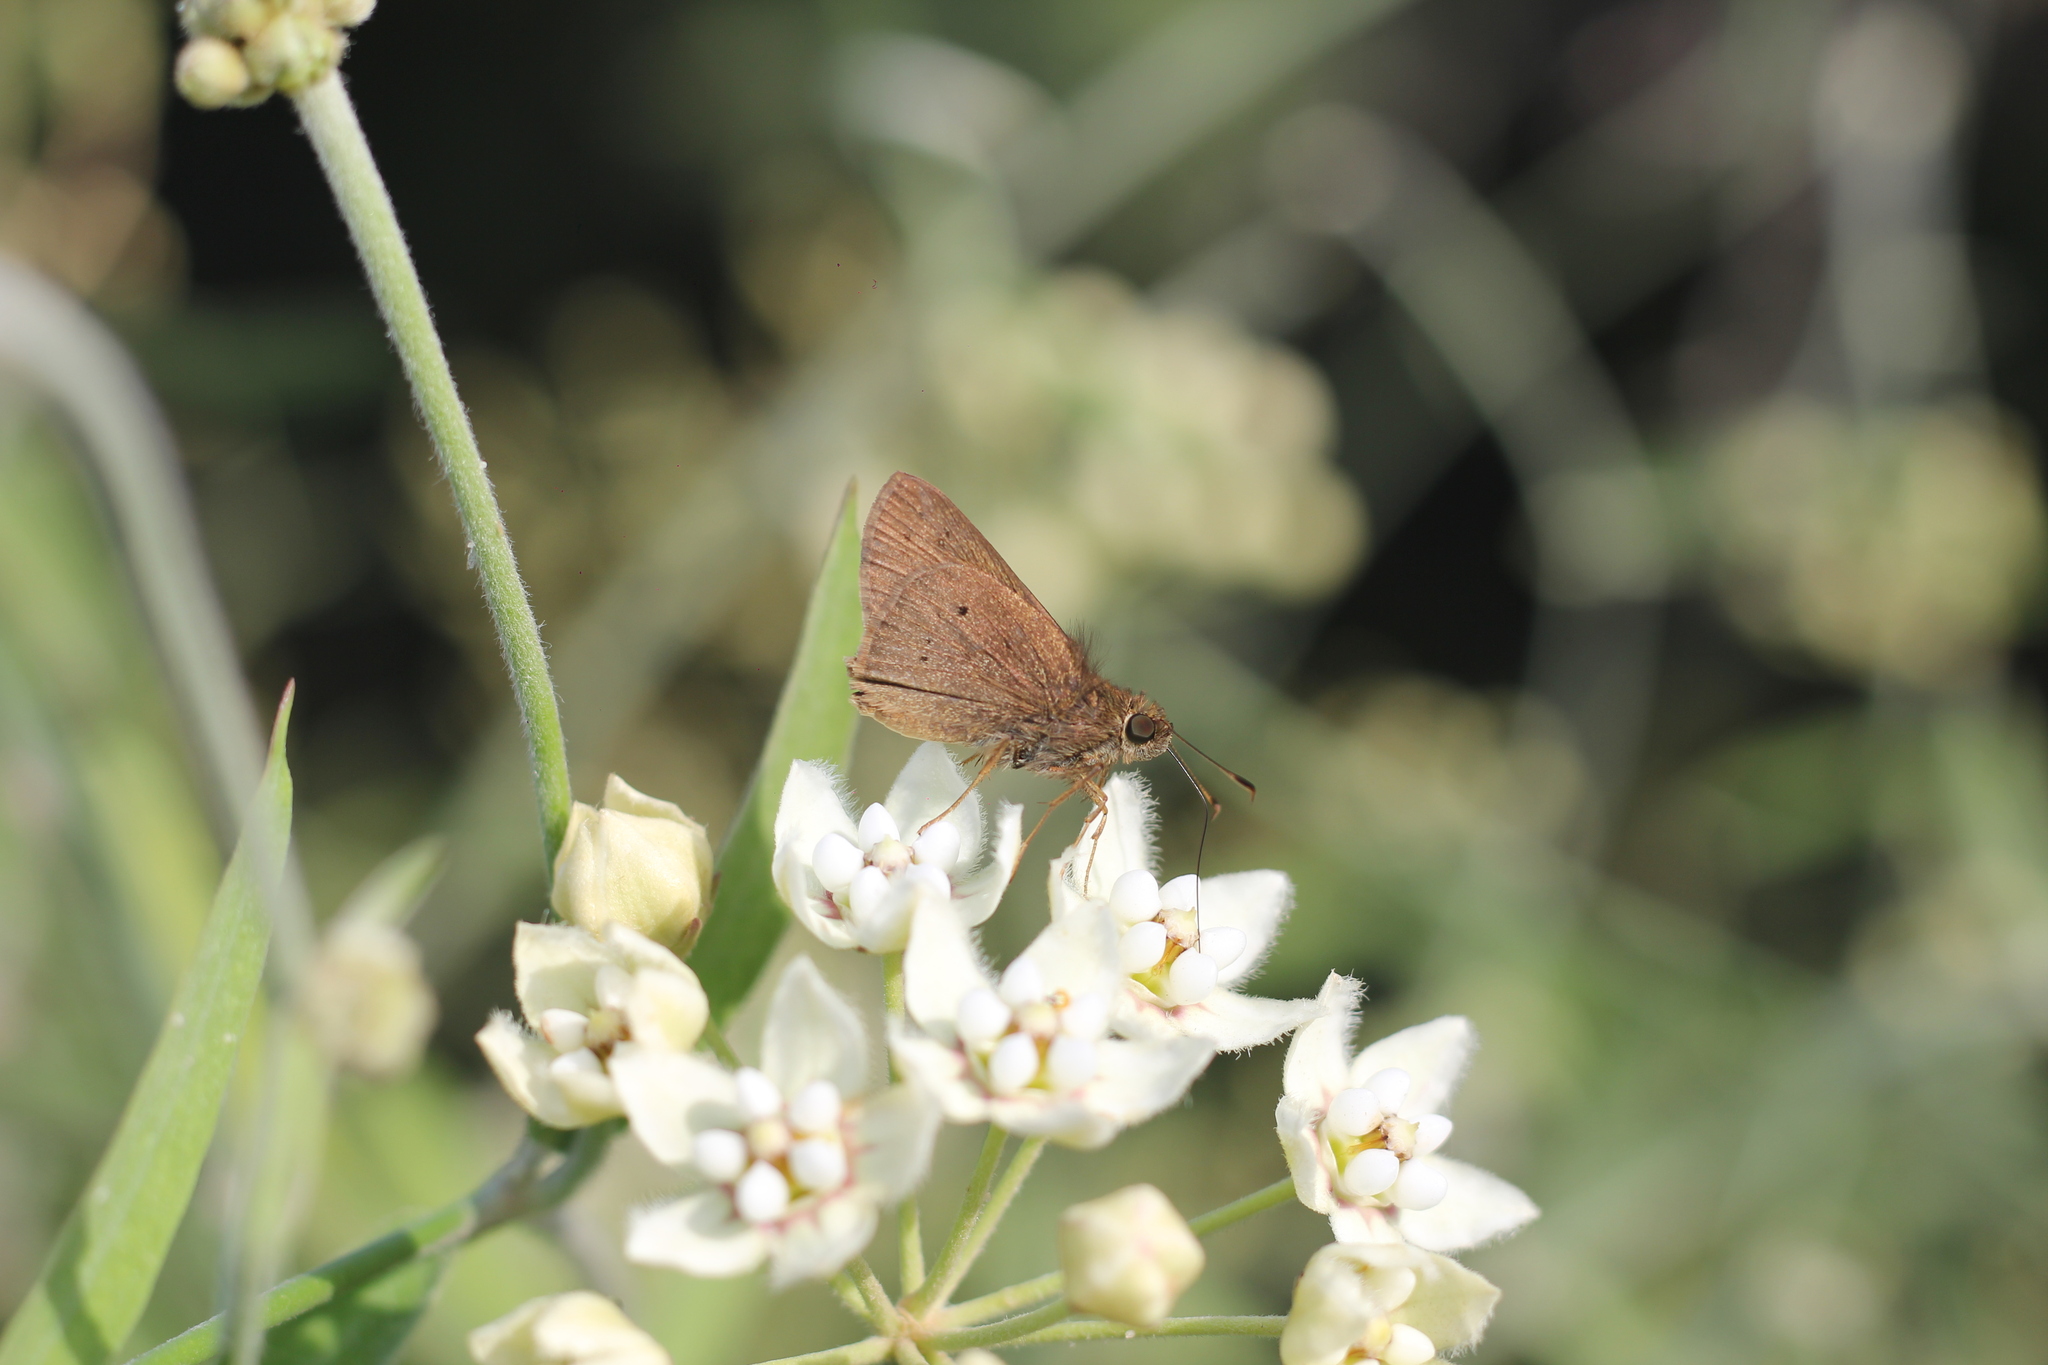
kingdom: Animalia
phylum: Arthropoda
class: Insecta
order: Lepidoptera
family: Hesperiidae
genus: Mucia
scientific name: Mucia zygia
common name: Black-dotted skipper
